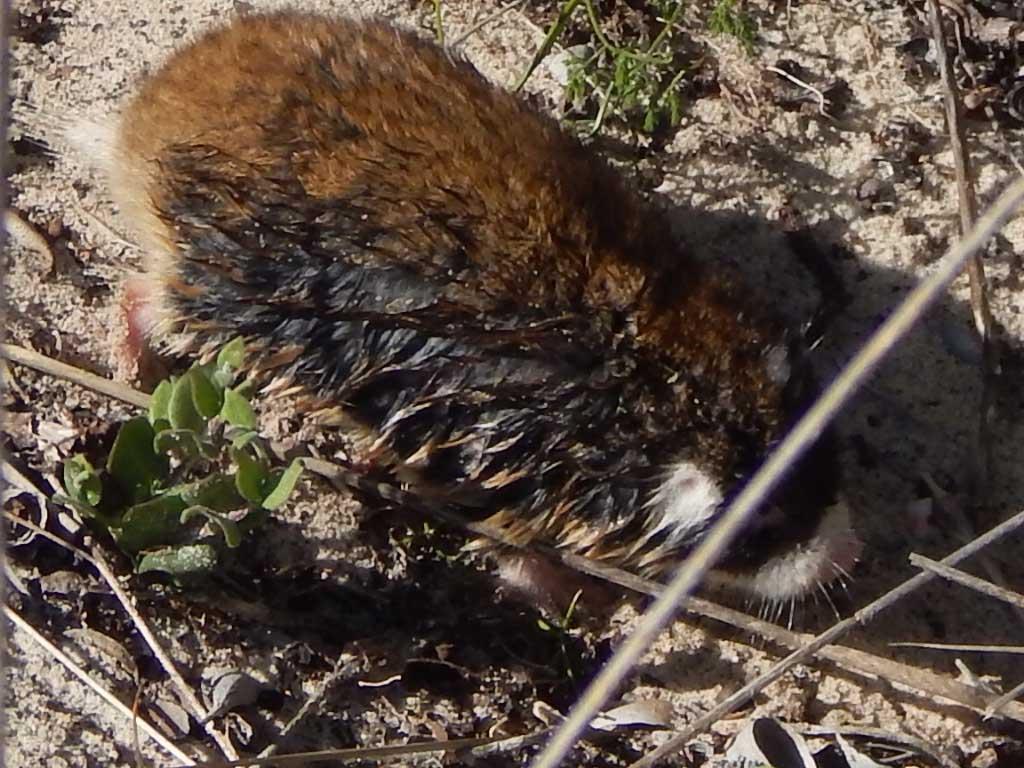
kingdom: Animalia
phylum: Chordata
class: Mammalia
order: Rodentia
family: Bathyergidae
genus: Georychus
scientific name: Georychus capensis
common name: Cape mole-rat
